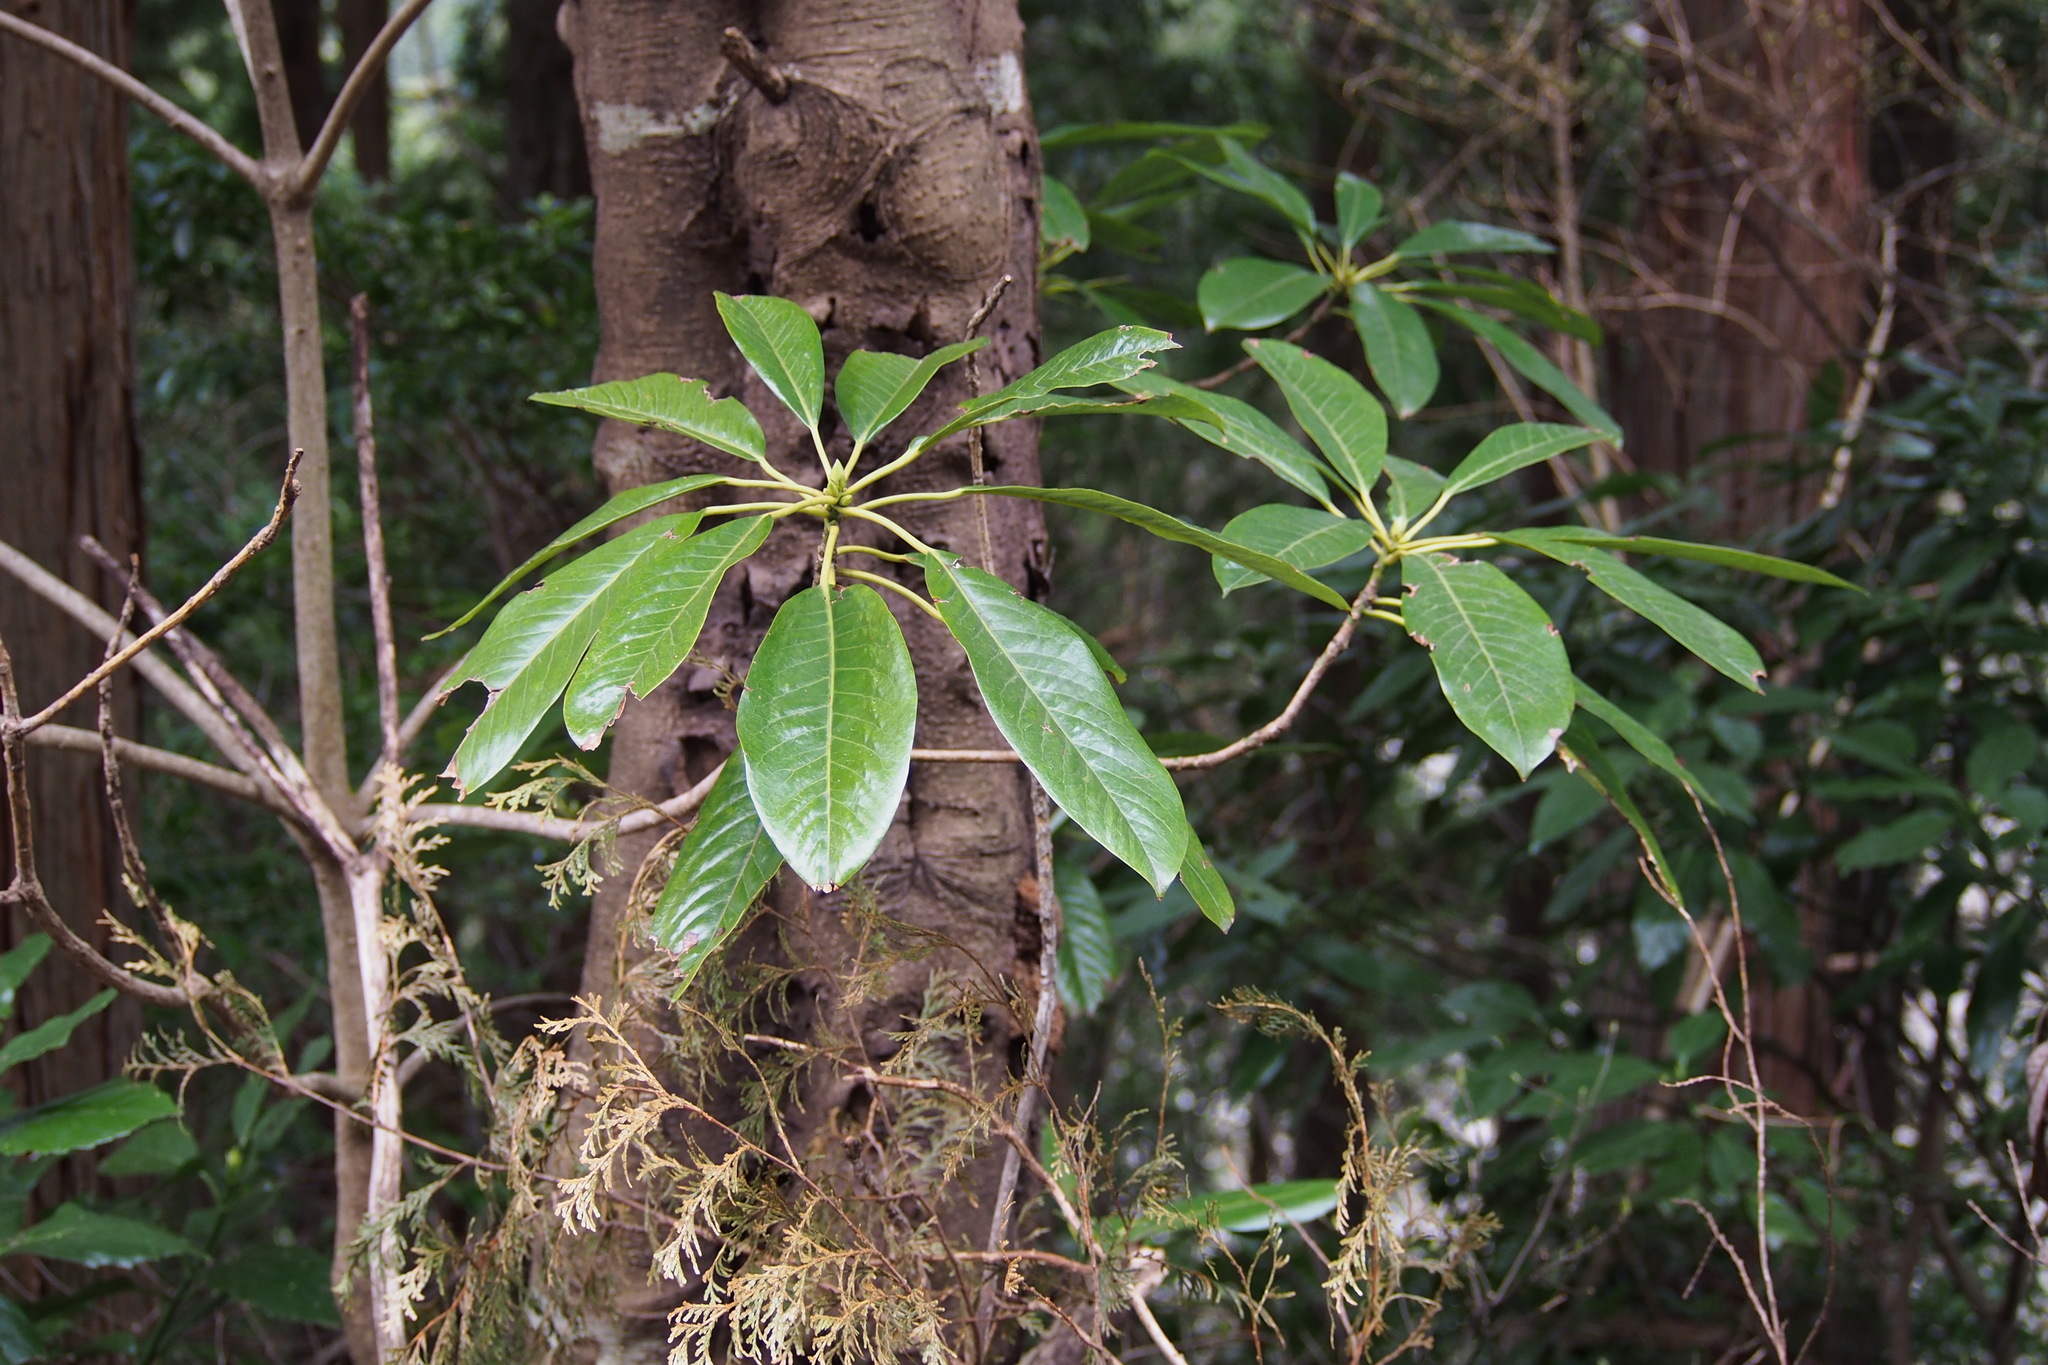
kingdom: Plantae
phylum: Tracheophyta
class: Magnoliopsida
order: Saxifragales
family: Daphniphyllaceae
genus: Daphniphyllum
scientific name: Daphniphyllum macropodum
